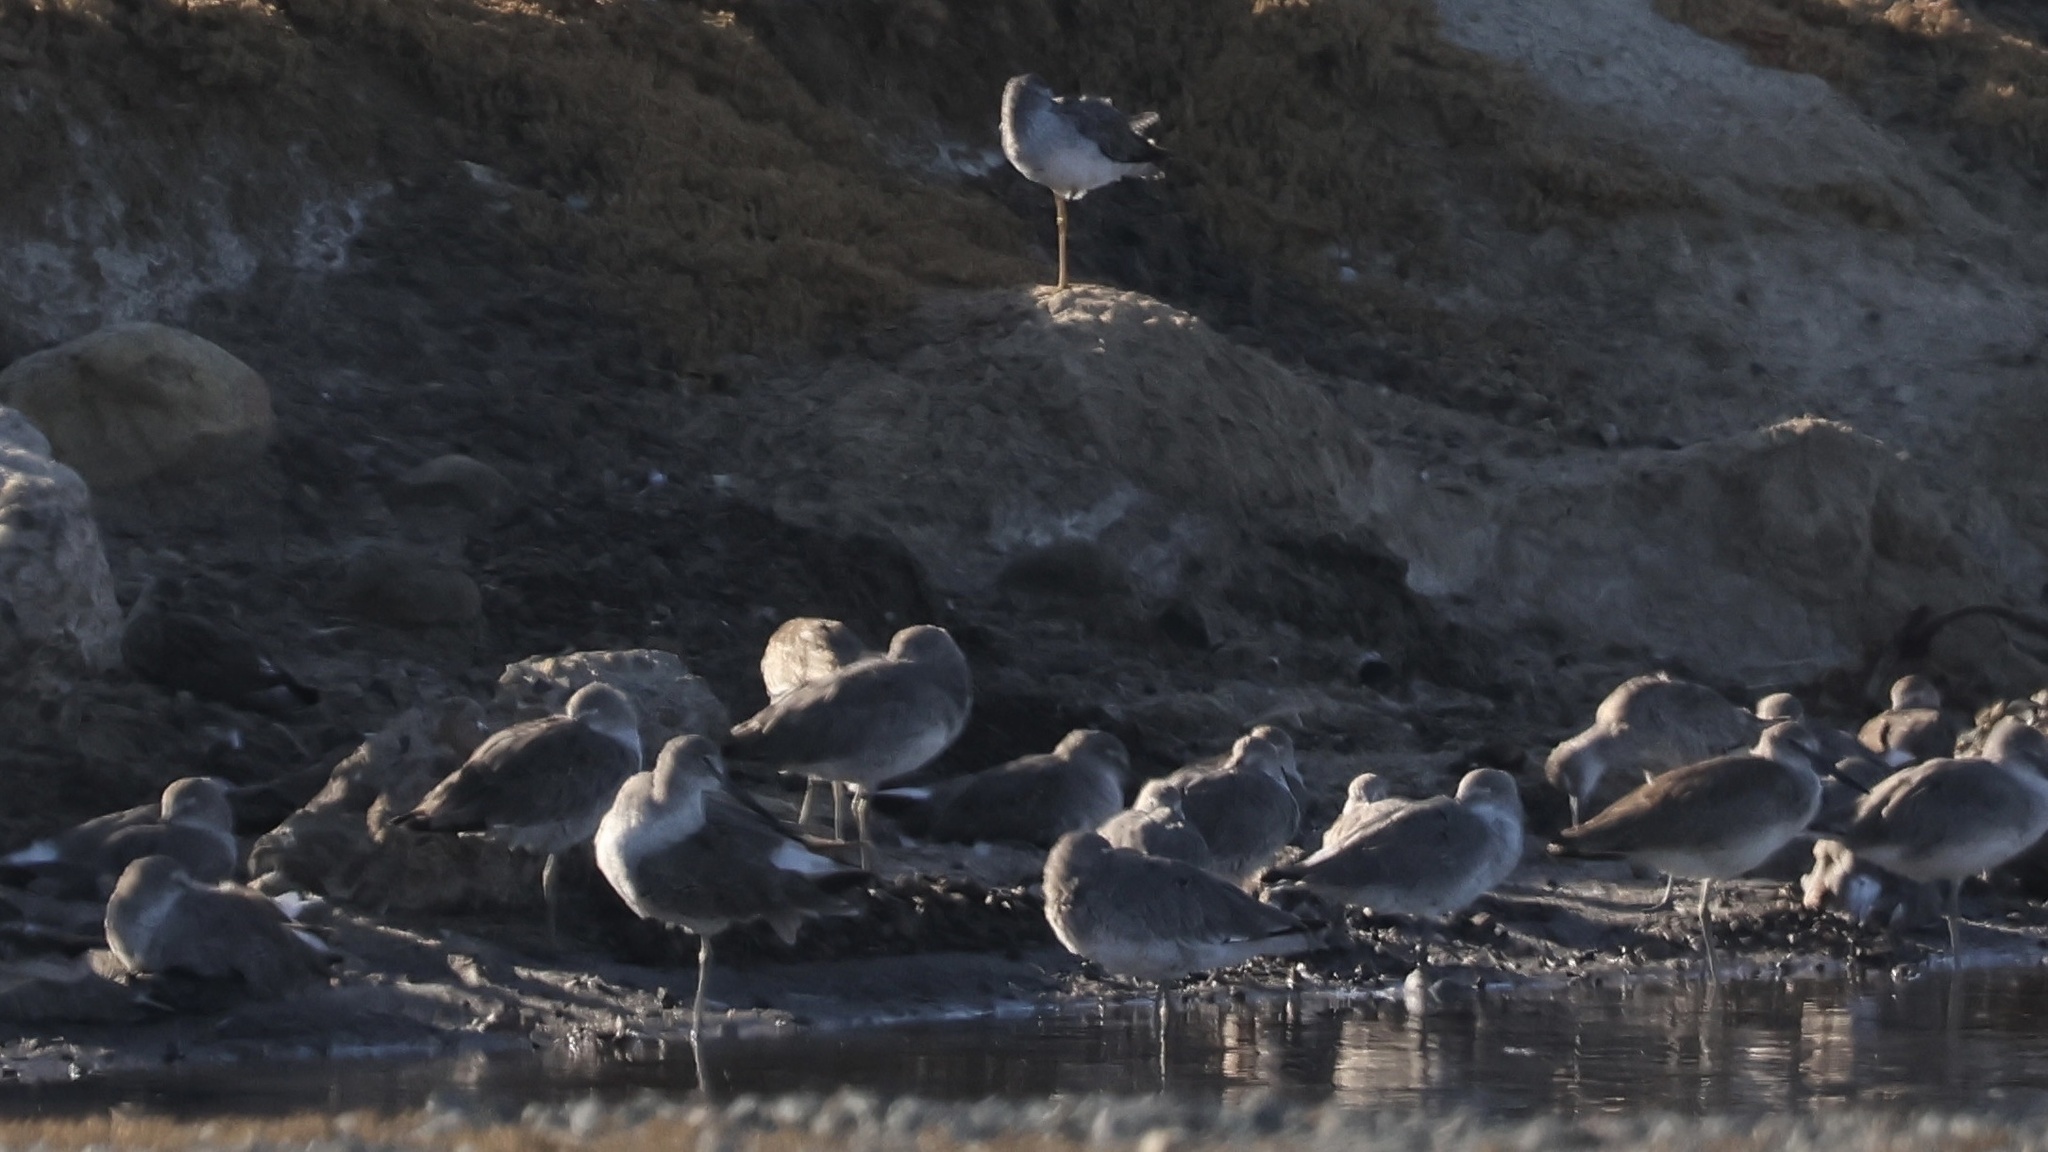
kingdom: Animalia
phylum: Chordata
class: Aves
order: Charadriiformes
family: Scolopacidae
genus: Tringa
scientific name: Tringa semipalmata
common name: Willet
